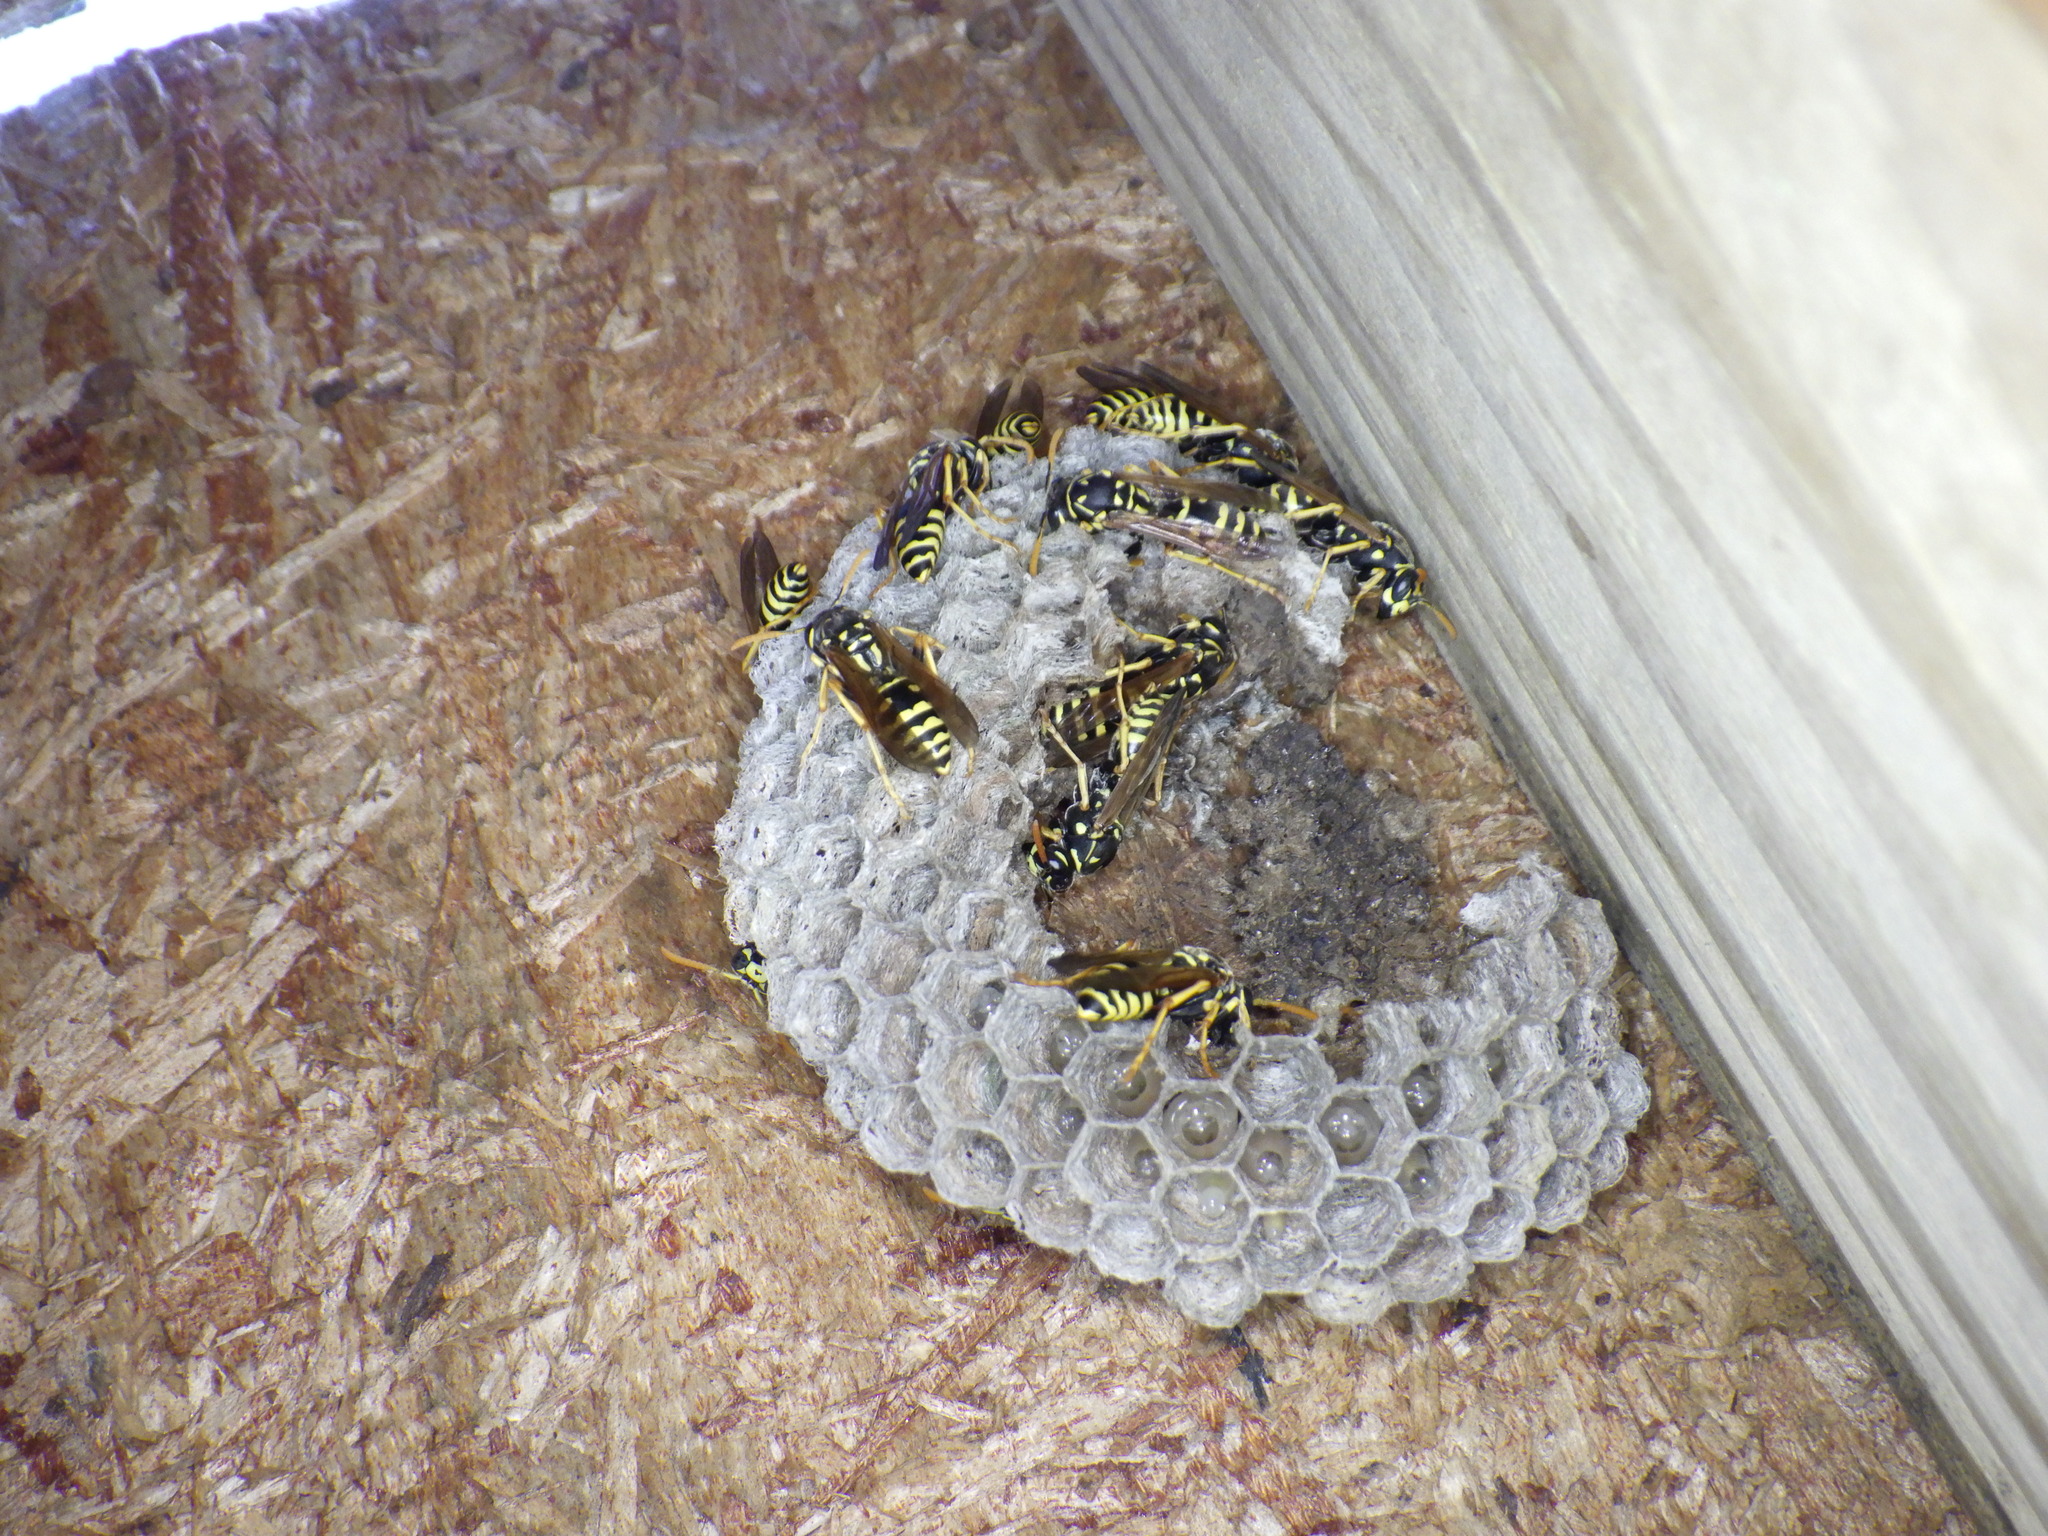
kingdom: Animalia
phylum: Arthropoda
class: Insecta
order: Hymenoptera
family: Eumenidae
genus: Polistes
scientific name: Polistes dominula
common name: Paper wasp
